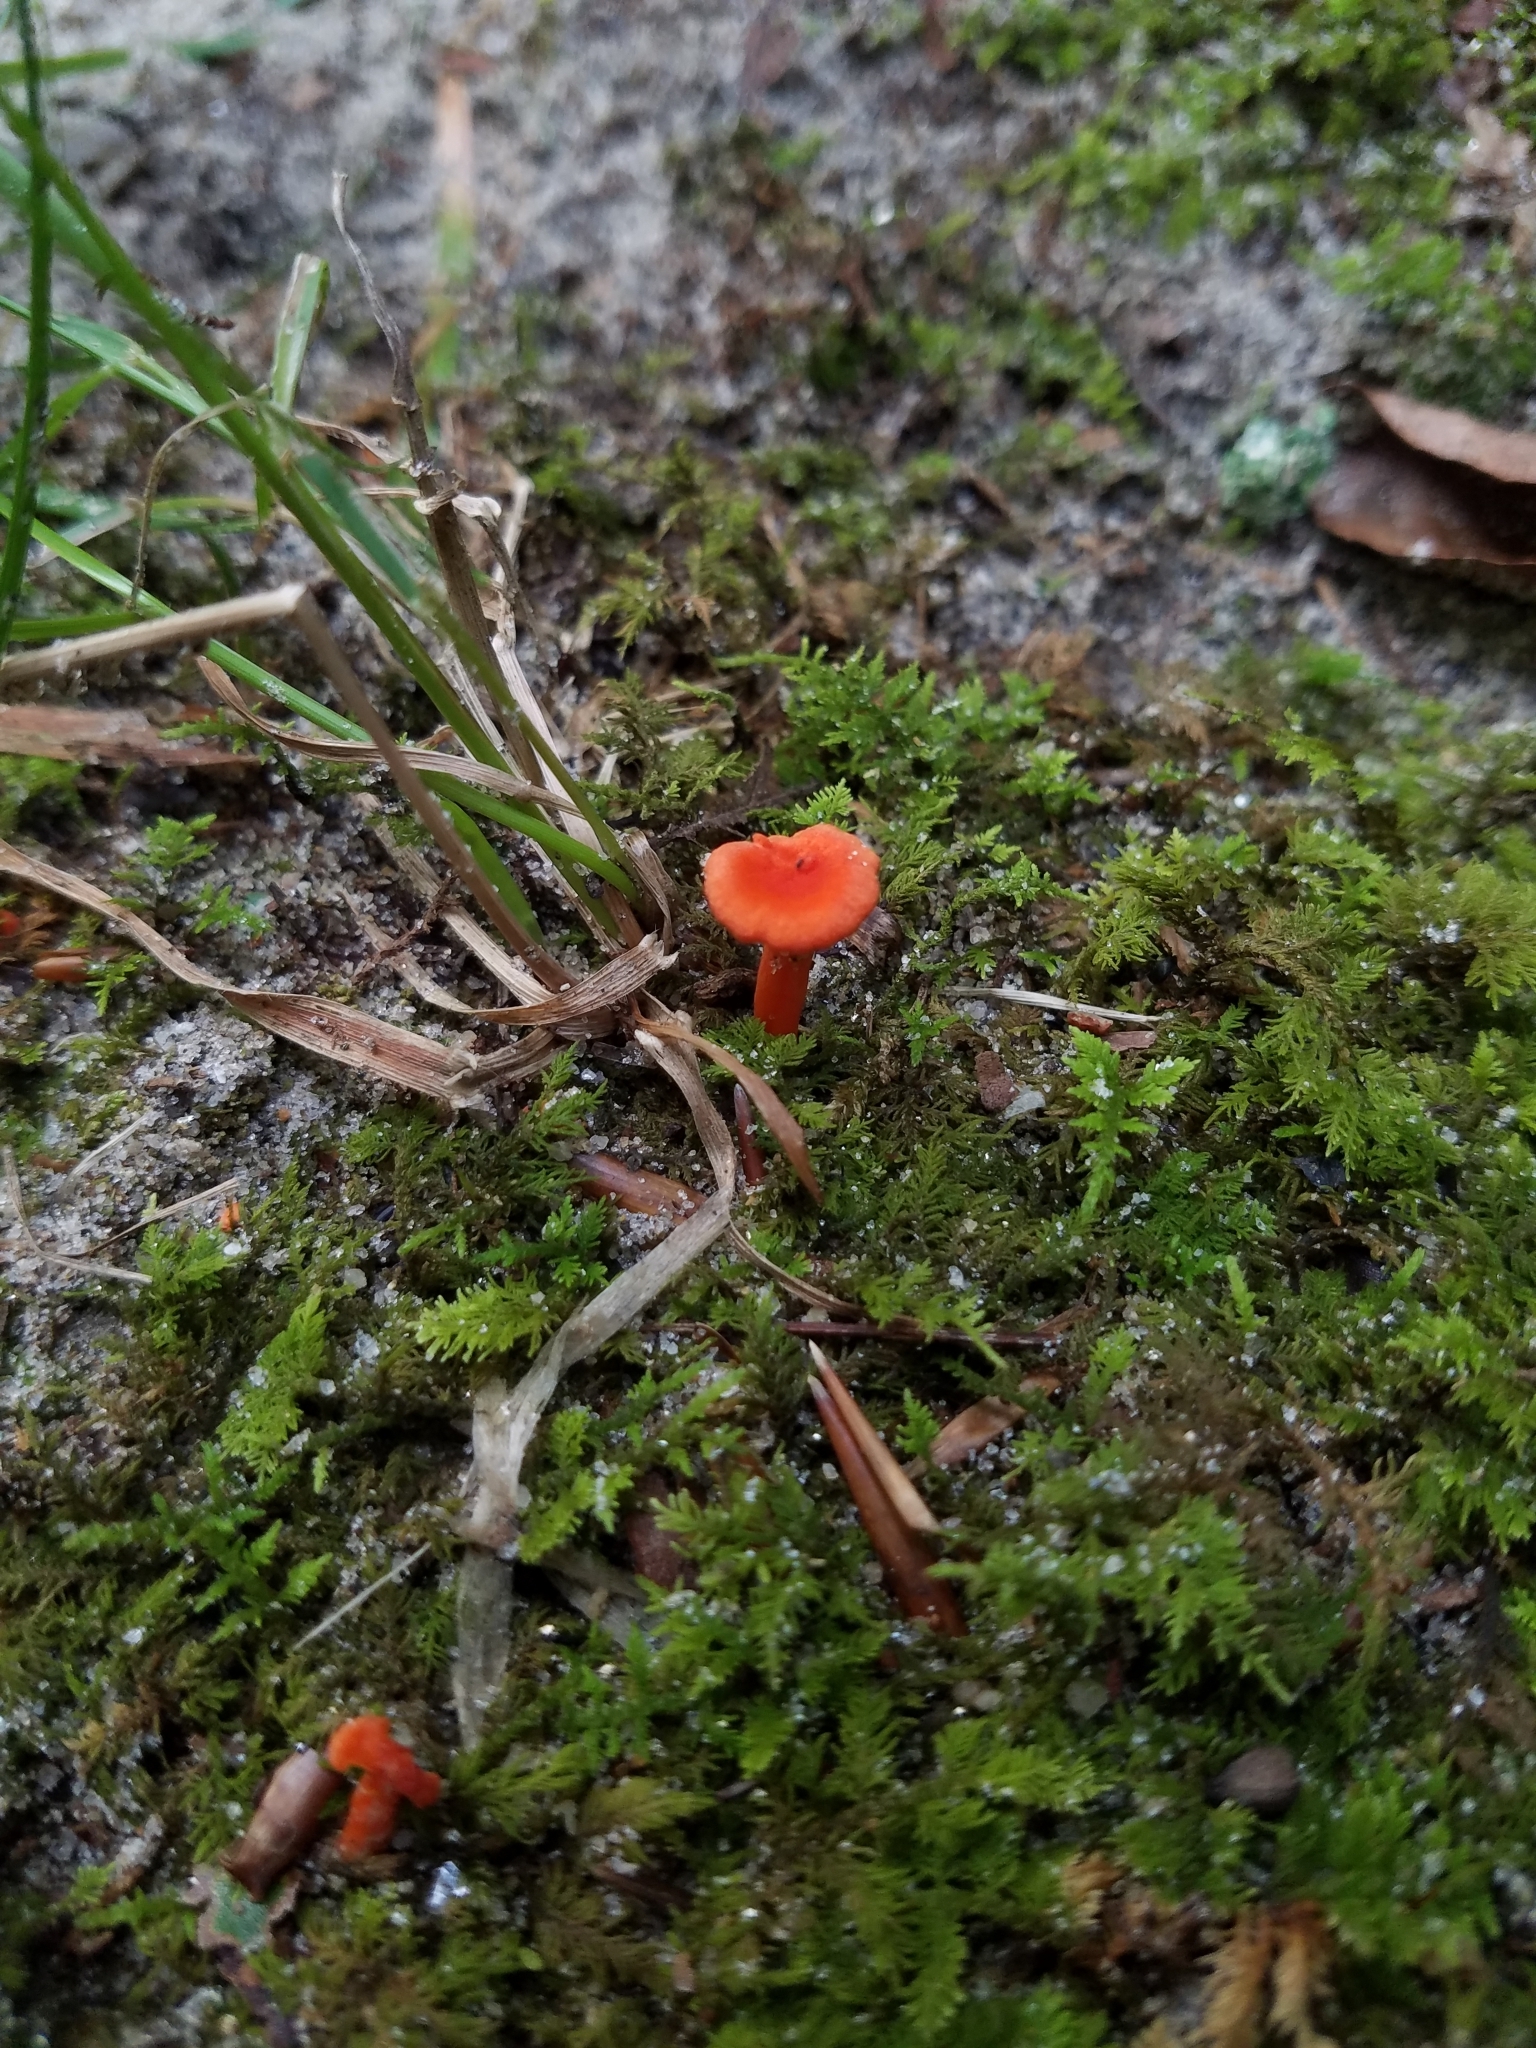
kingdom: Fungi
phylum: Basidiomycota
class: Agaricomycetes
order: Cantharellales
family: Hydnaceae
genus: Cantharellus
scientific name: Cantharellus cinnabarinus
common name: Cinnabar chanterelle
